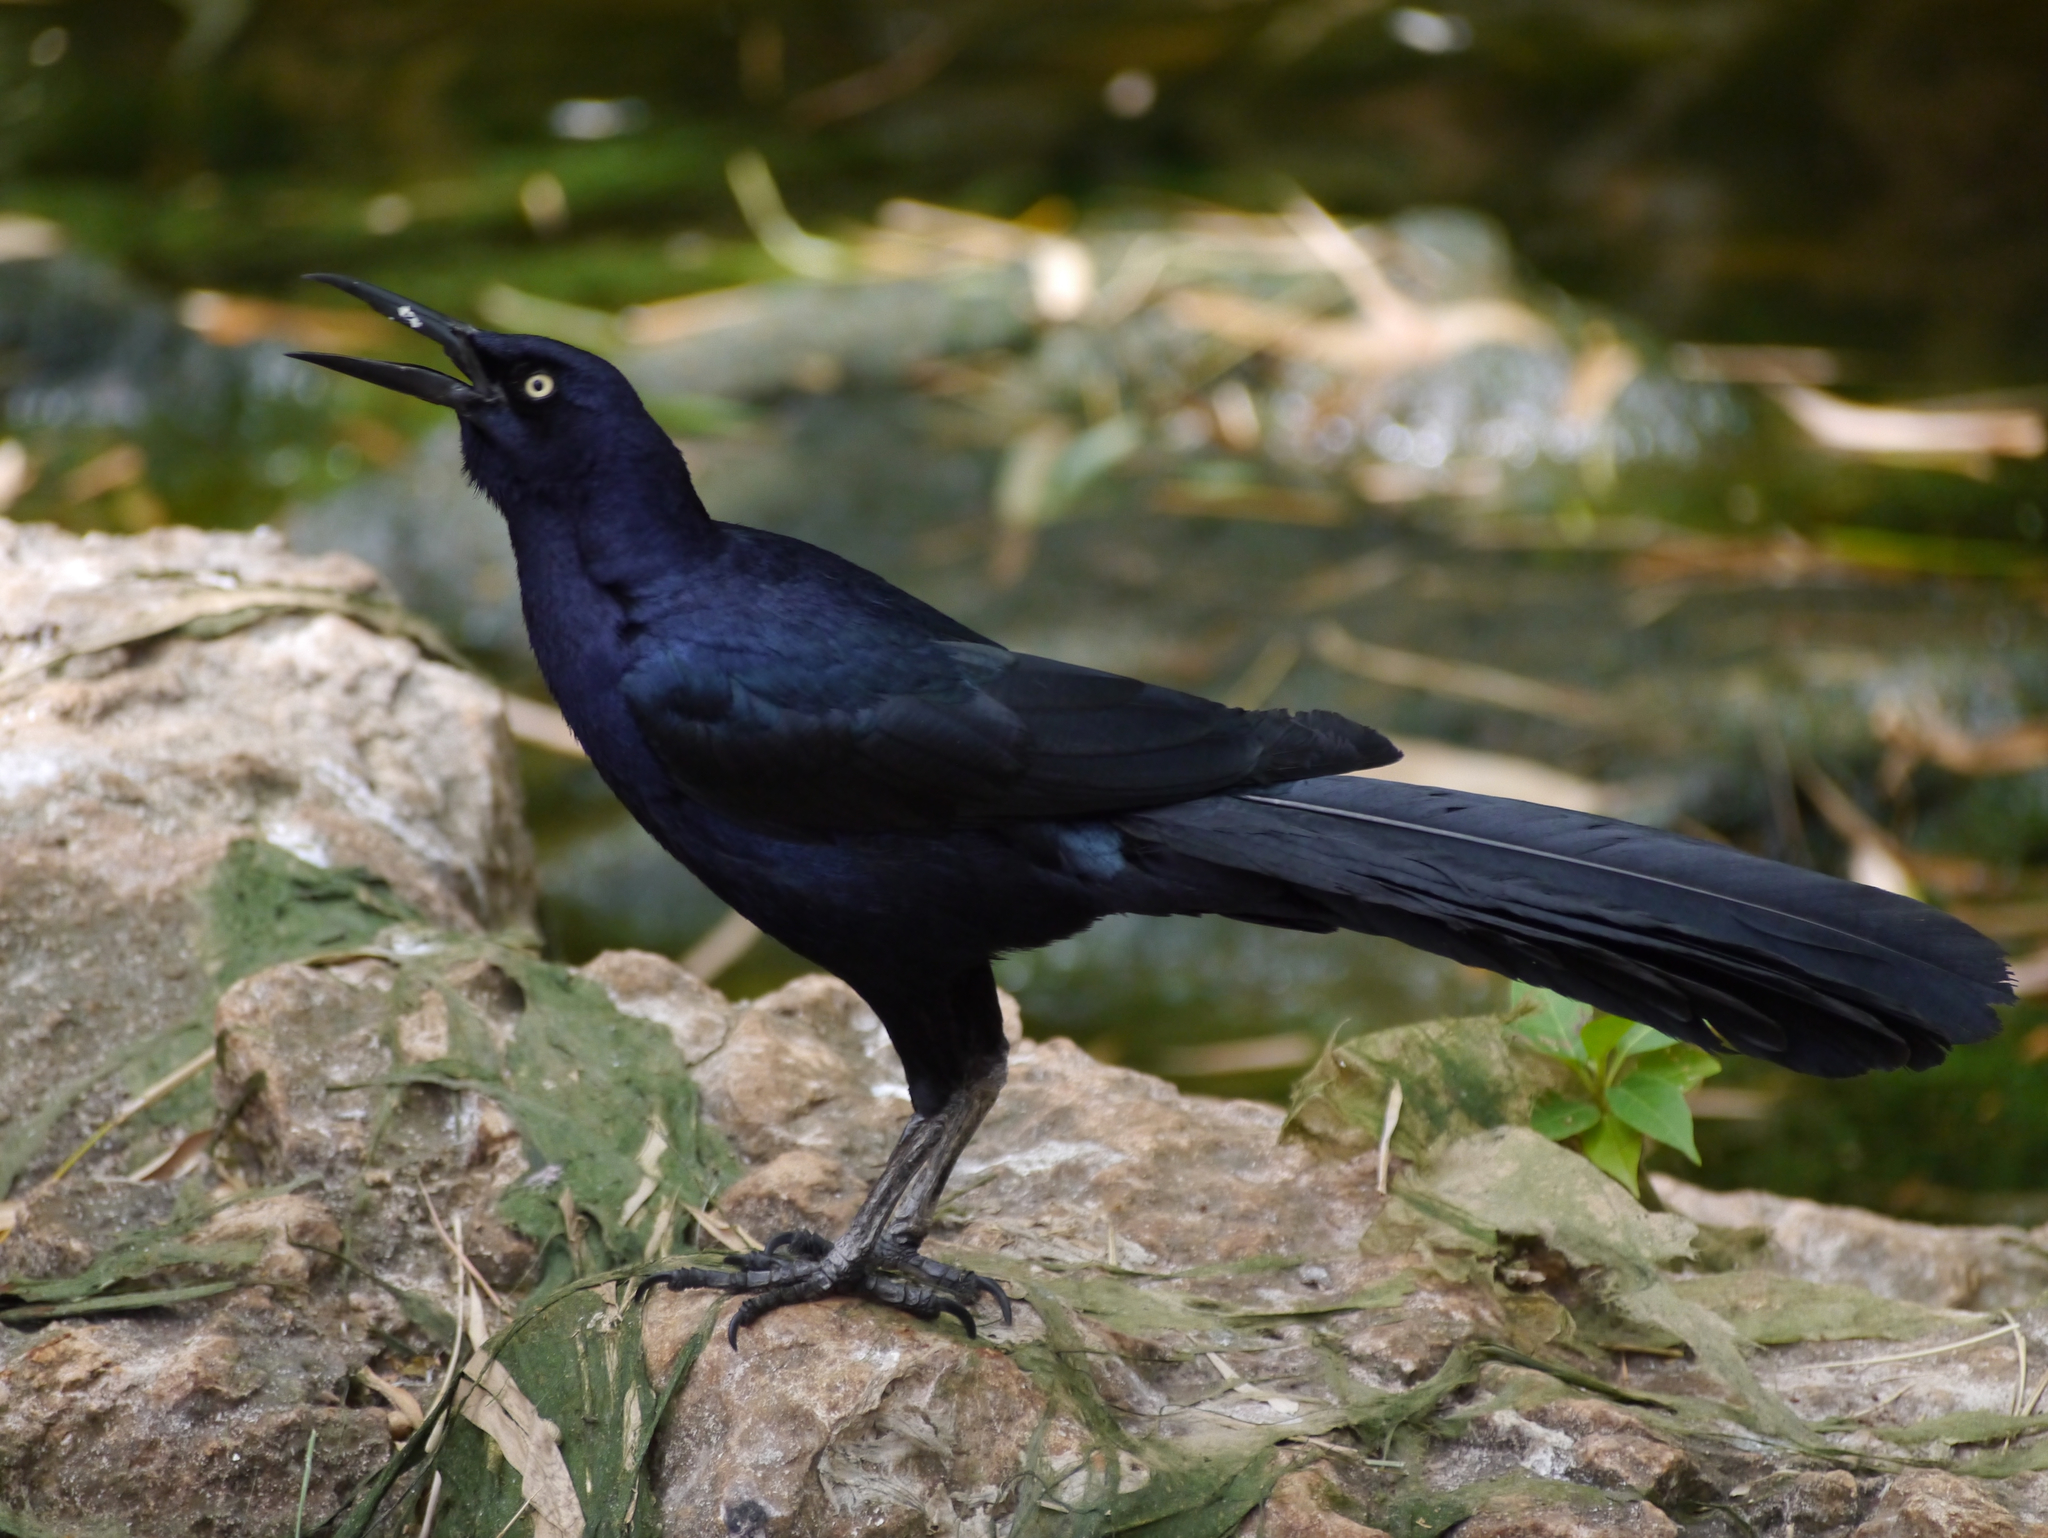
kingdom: Animalia
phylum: Chordata
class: Aves
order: Passeriformes
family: Icteridae
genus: Quiscalus
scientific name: Quiscalus mexicanus
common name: Great-tailed grackle
